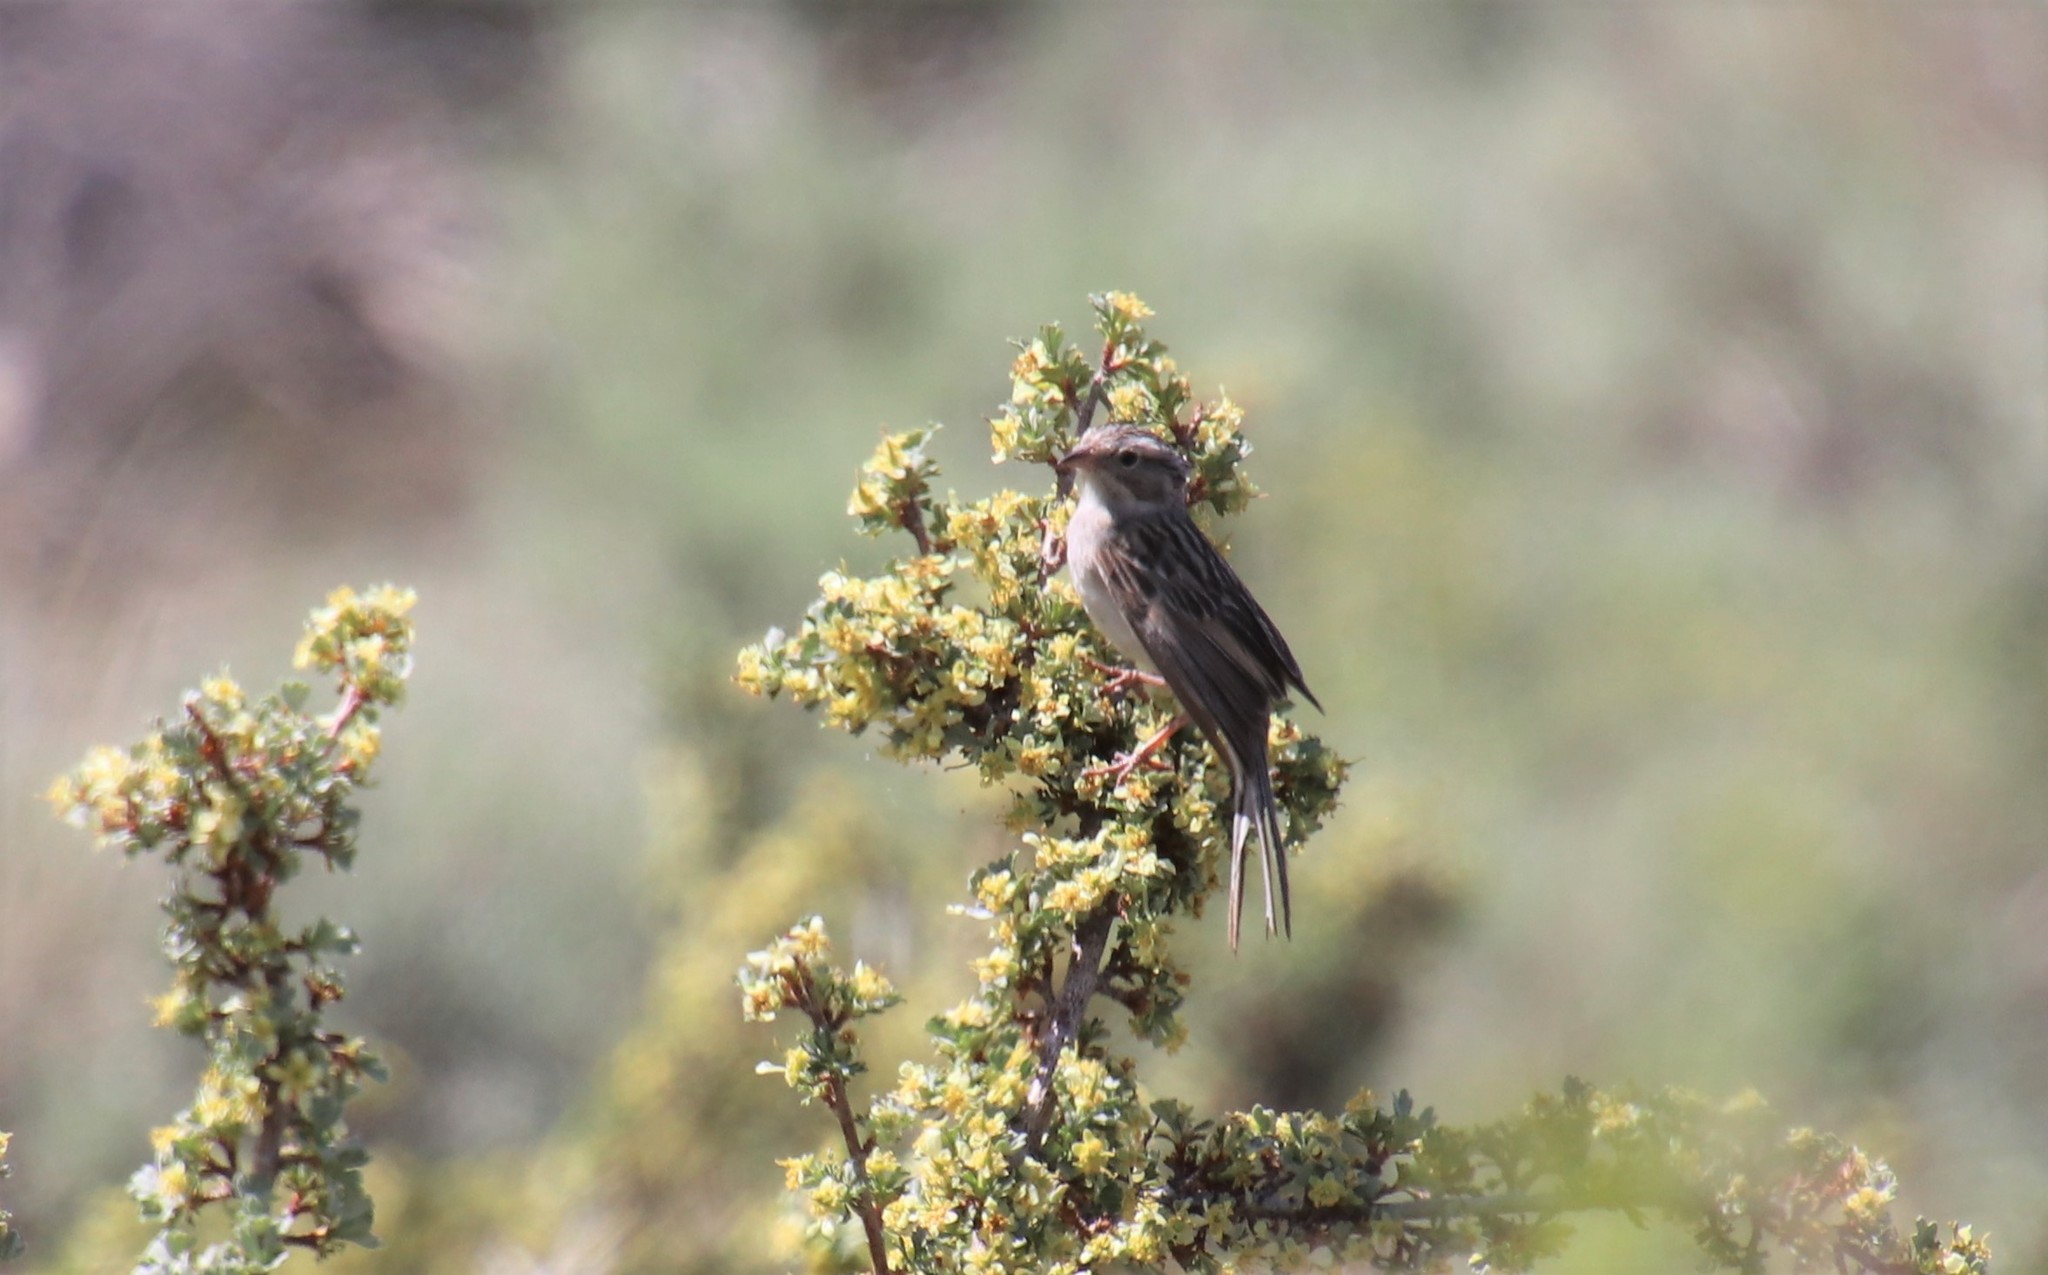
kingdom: Animalia
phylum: Chordata
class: Aves
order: Passeriformes
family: Passerellidae
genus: Spizella
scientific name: Spizella breweri
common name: Brewer's sparrow
